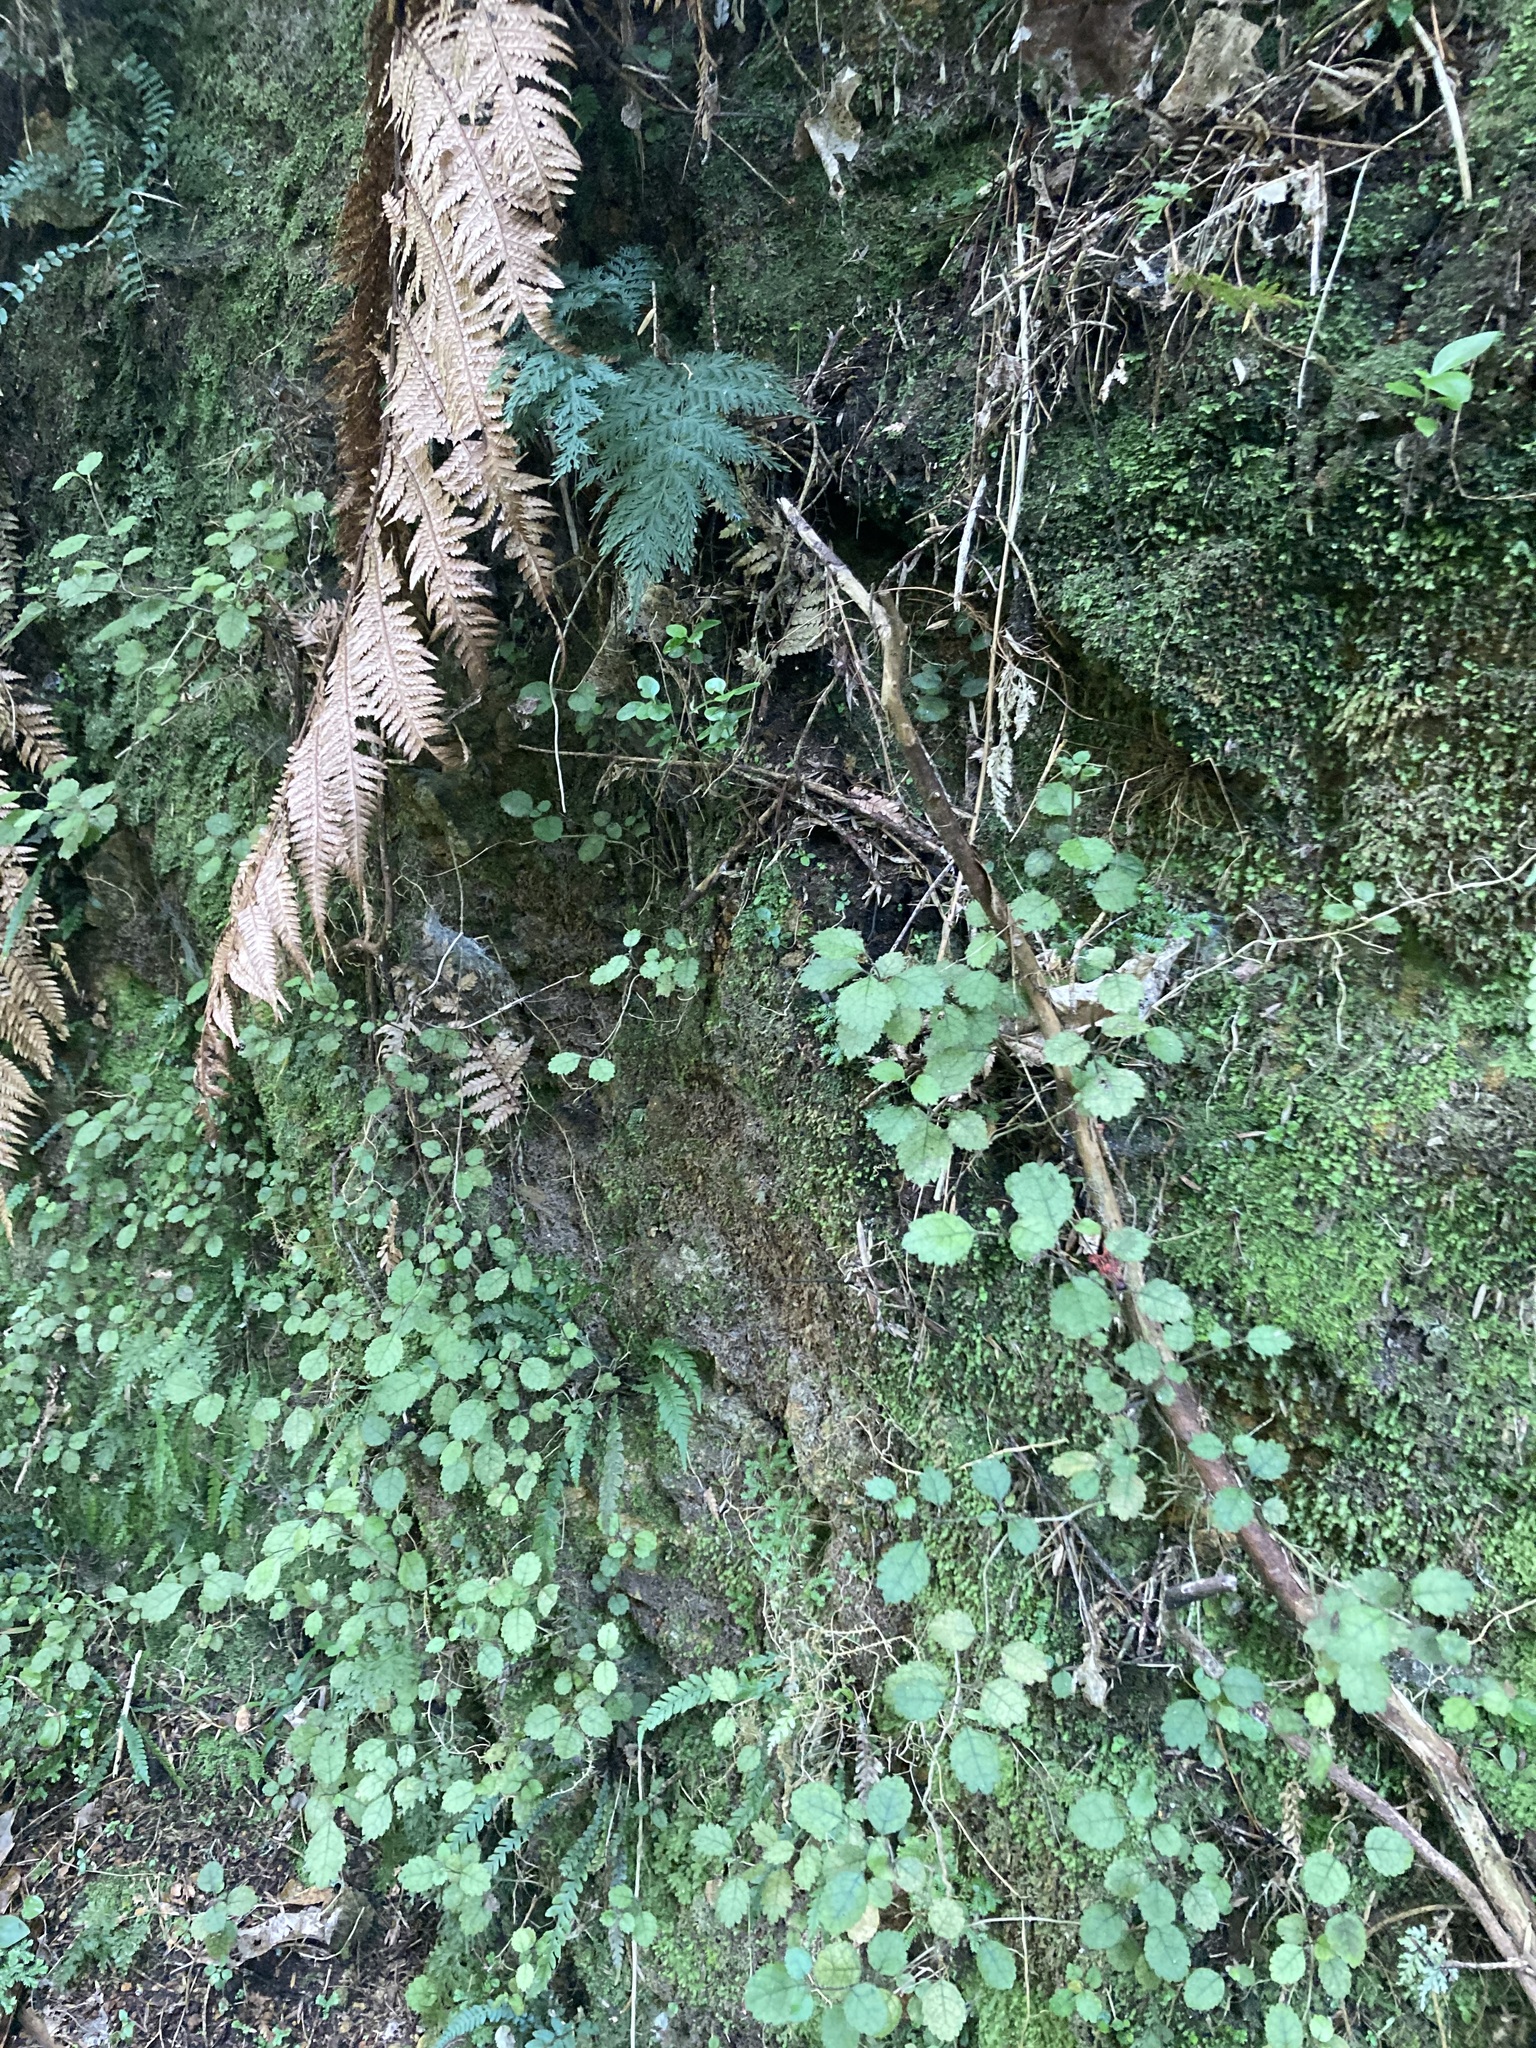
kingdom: Plantae
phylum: Tracheophyta
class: Magnoliopsida
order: Lamiales
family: Gesneriaceae
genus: Rhabdothamnus
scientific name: Rhabdothamnus solandri
